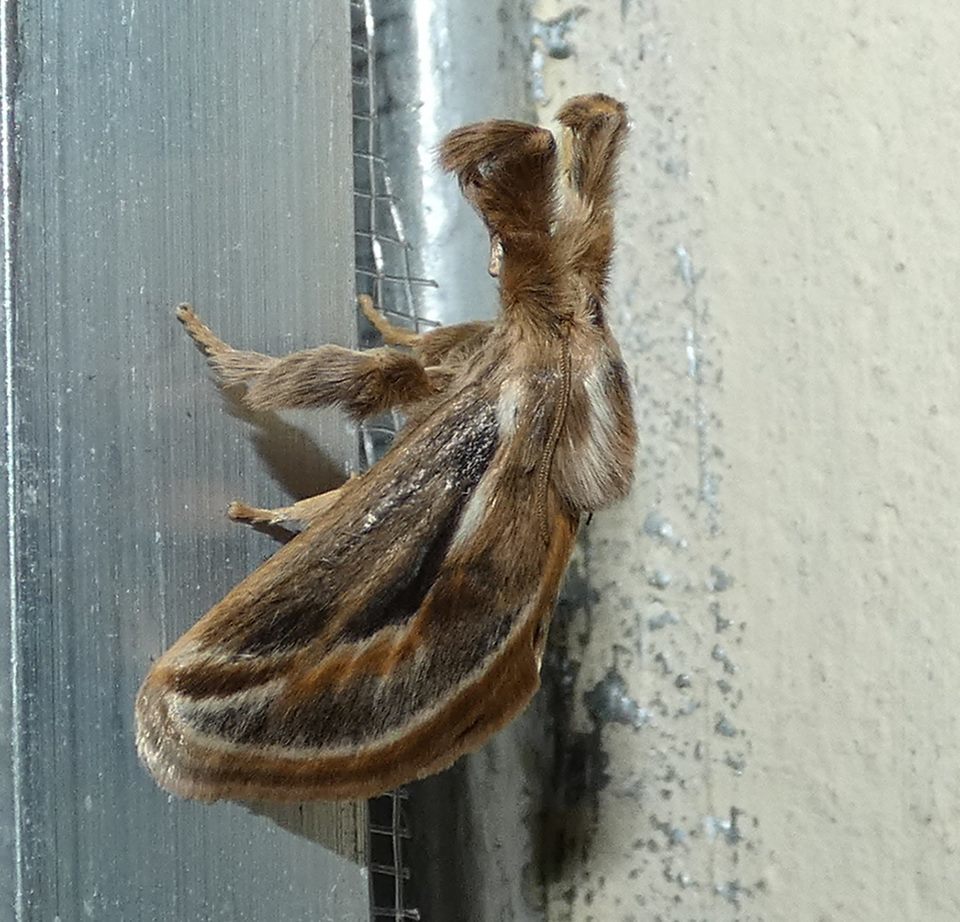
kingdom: Animalia
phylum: Arthropoda
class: Insecta
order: Lepidoptera
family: Limacodidae
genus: Perola
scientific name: Perola brumalis
